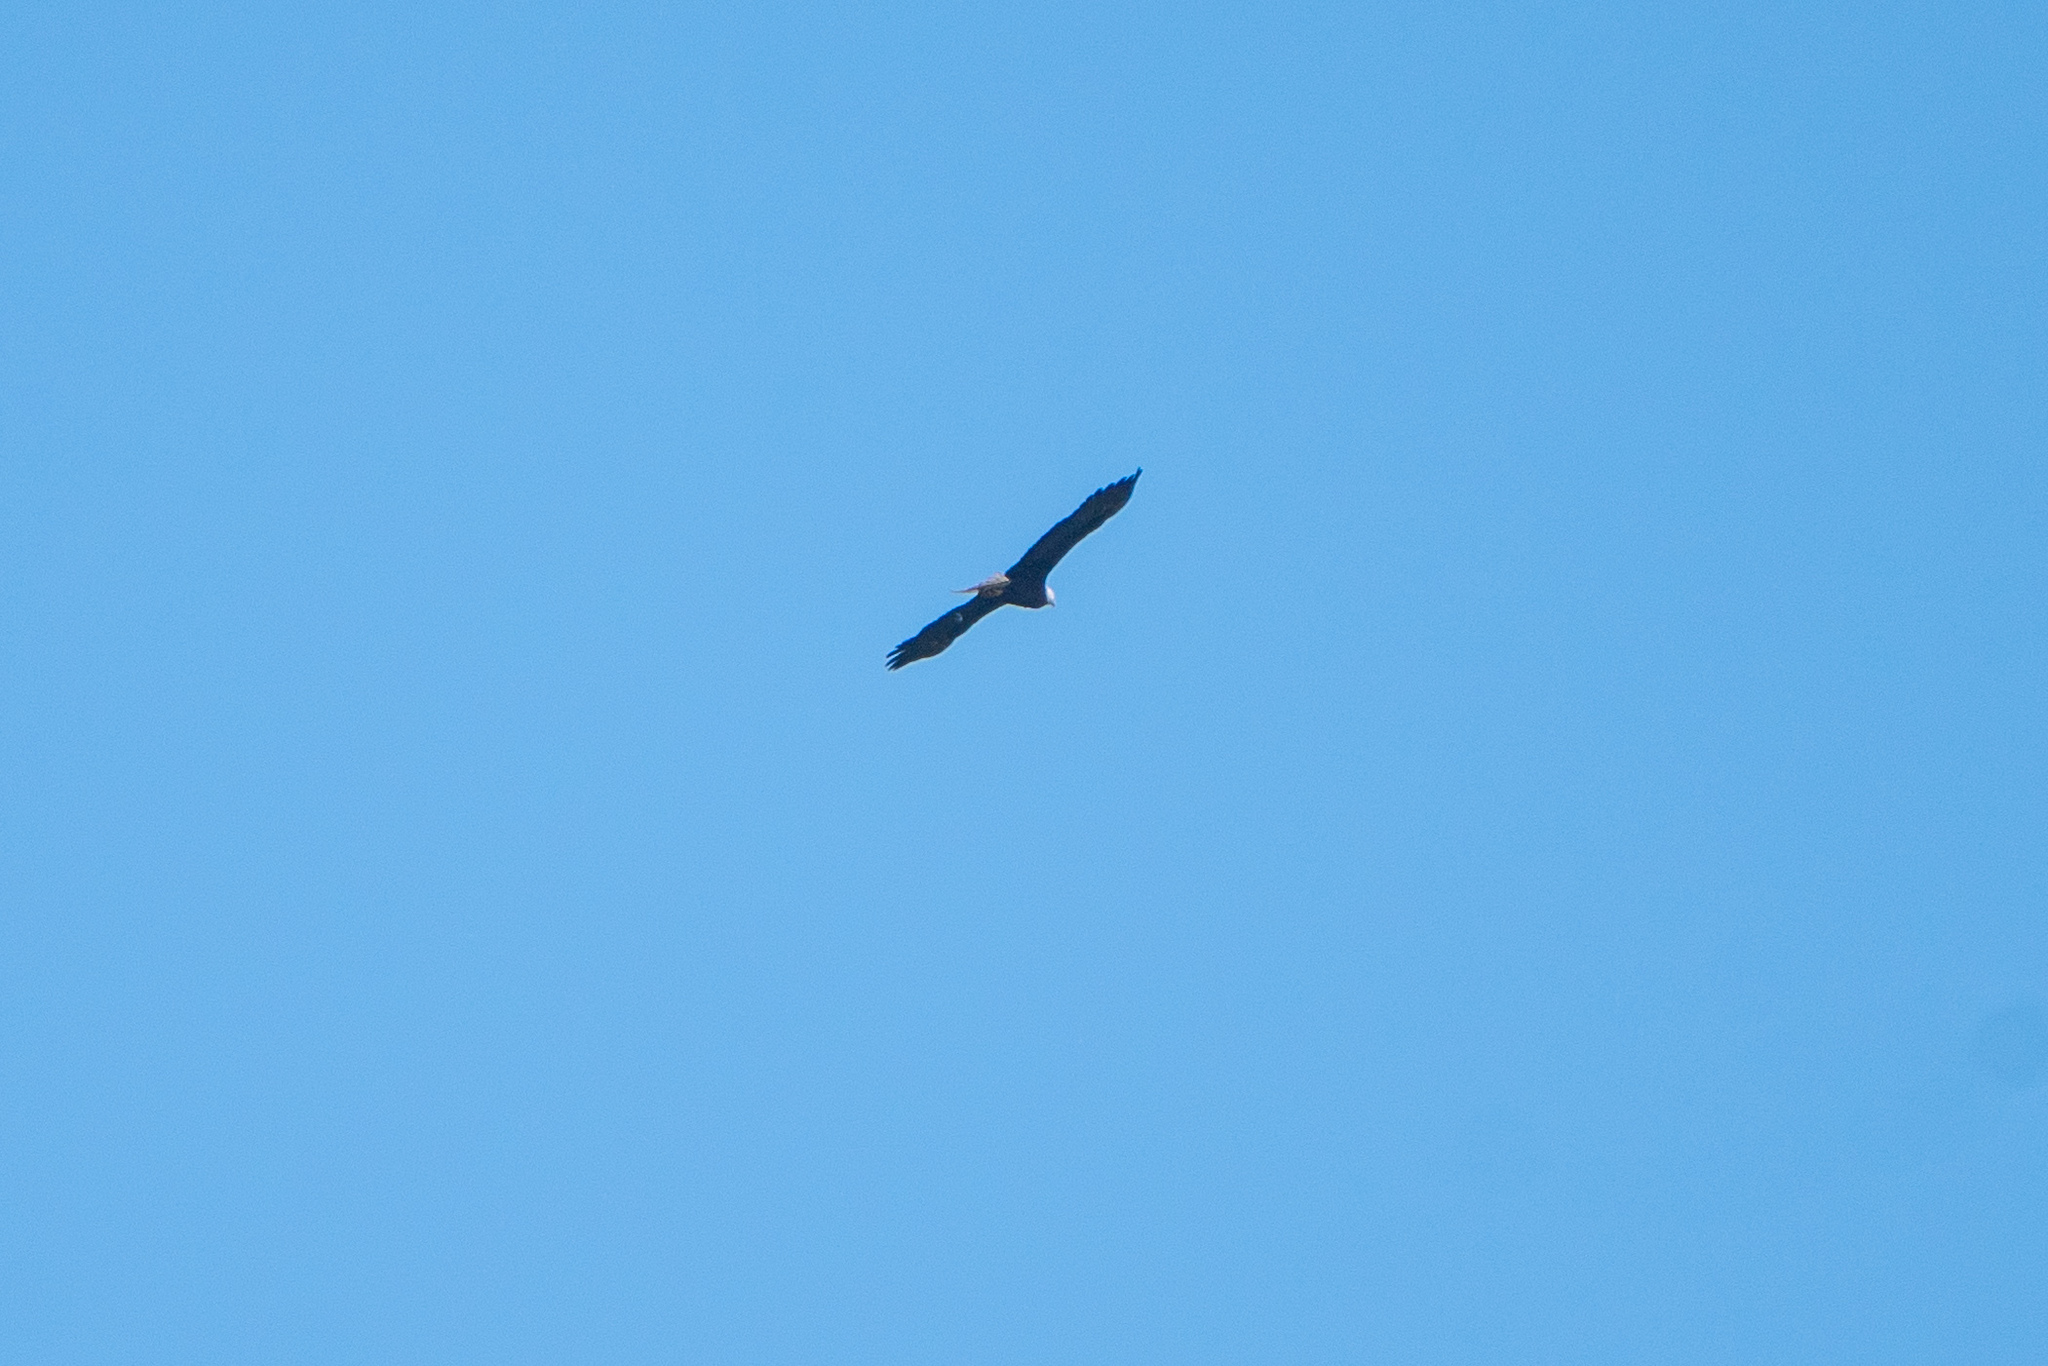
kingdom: Animalia
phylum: Chordata
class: Aves
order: Accipitriformes
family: Accipitridae
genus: Haliaeetus
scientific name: Haliaeetus leucocephalus
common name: Bald eagle
